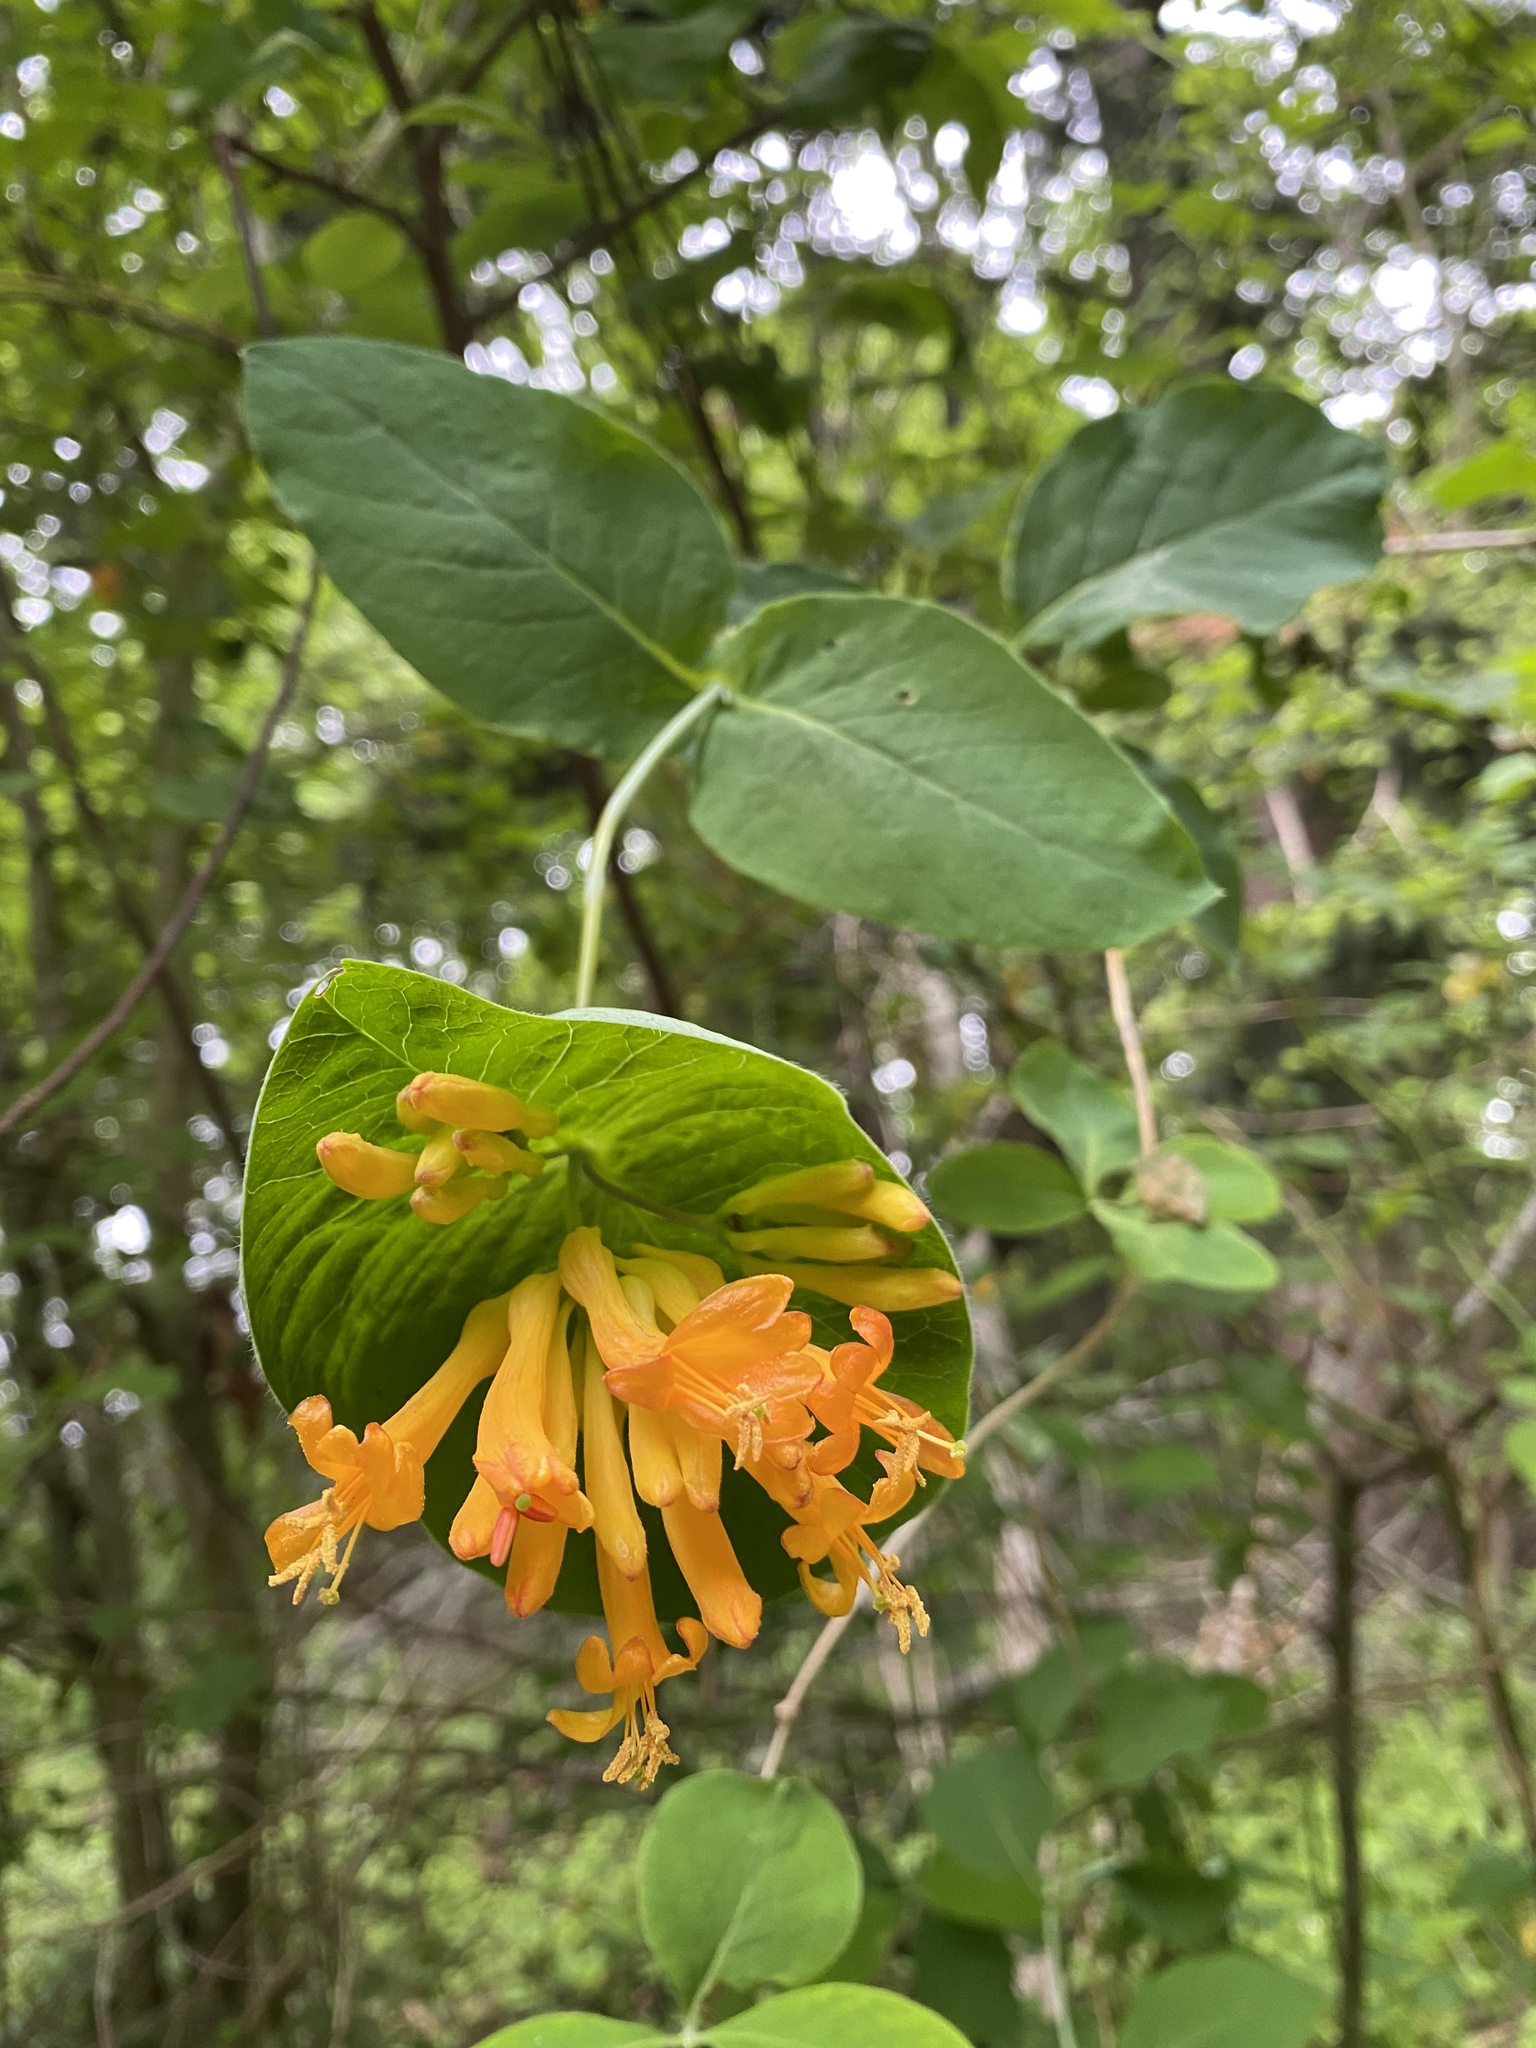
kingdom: Plantae
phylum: Tracheophyta
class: Magnoliopsida
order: Dipsacales
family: Caprifoliaceae
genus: Lonicera
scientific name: Lonicera ciliosa
